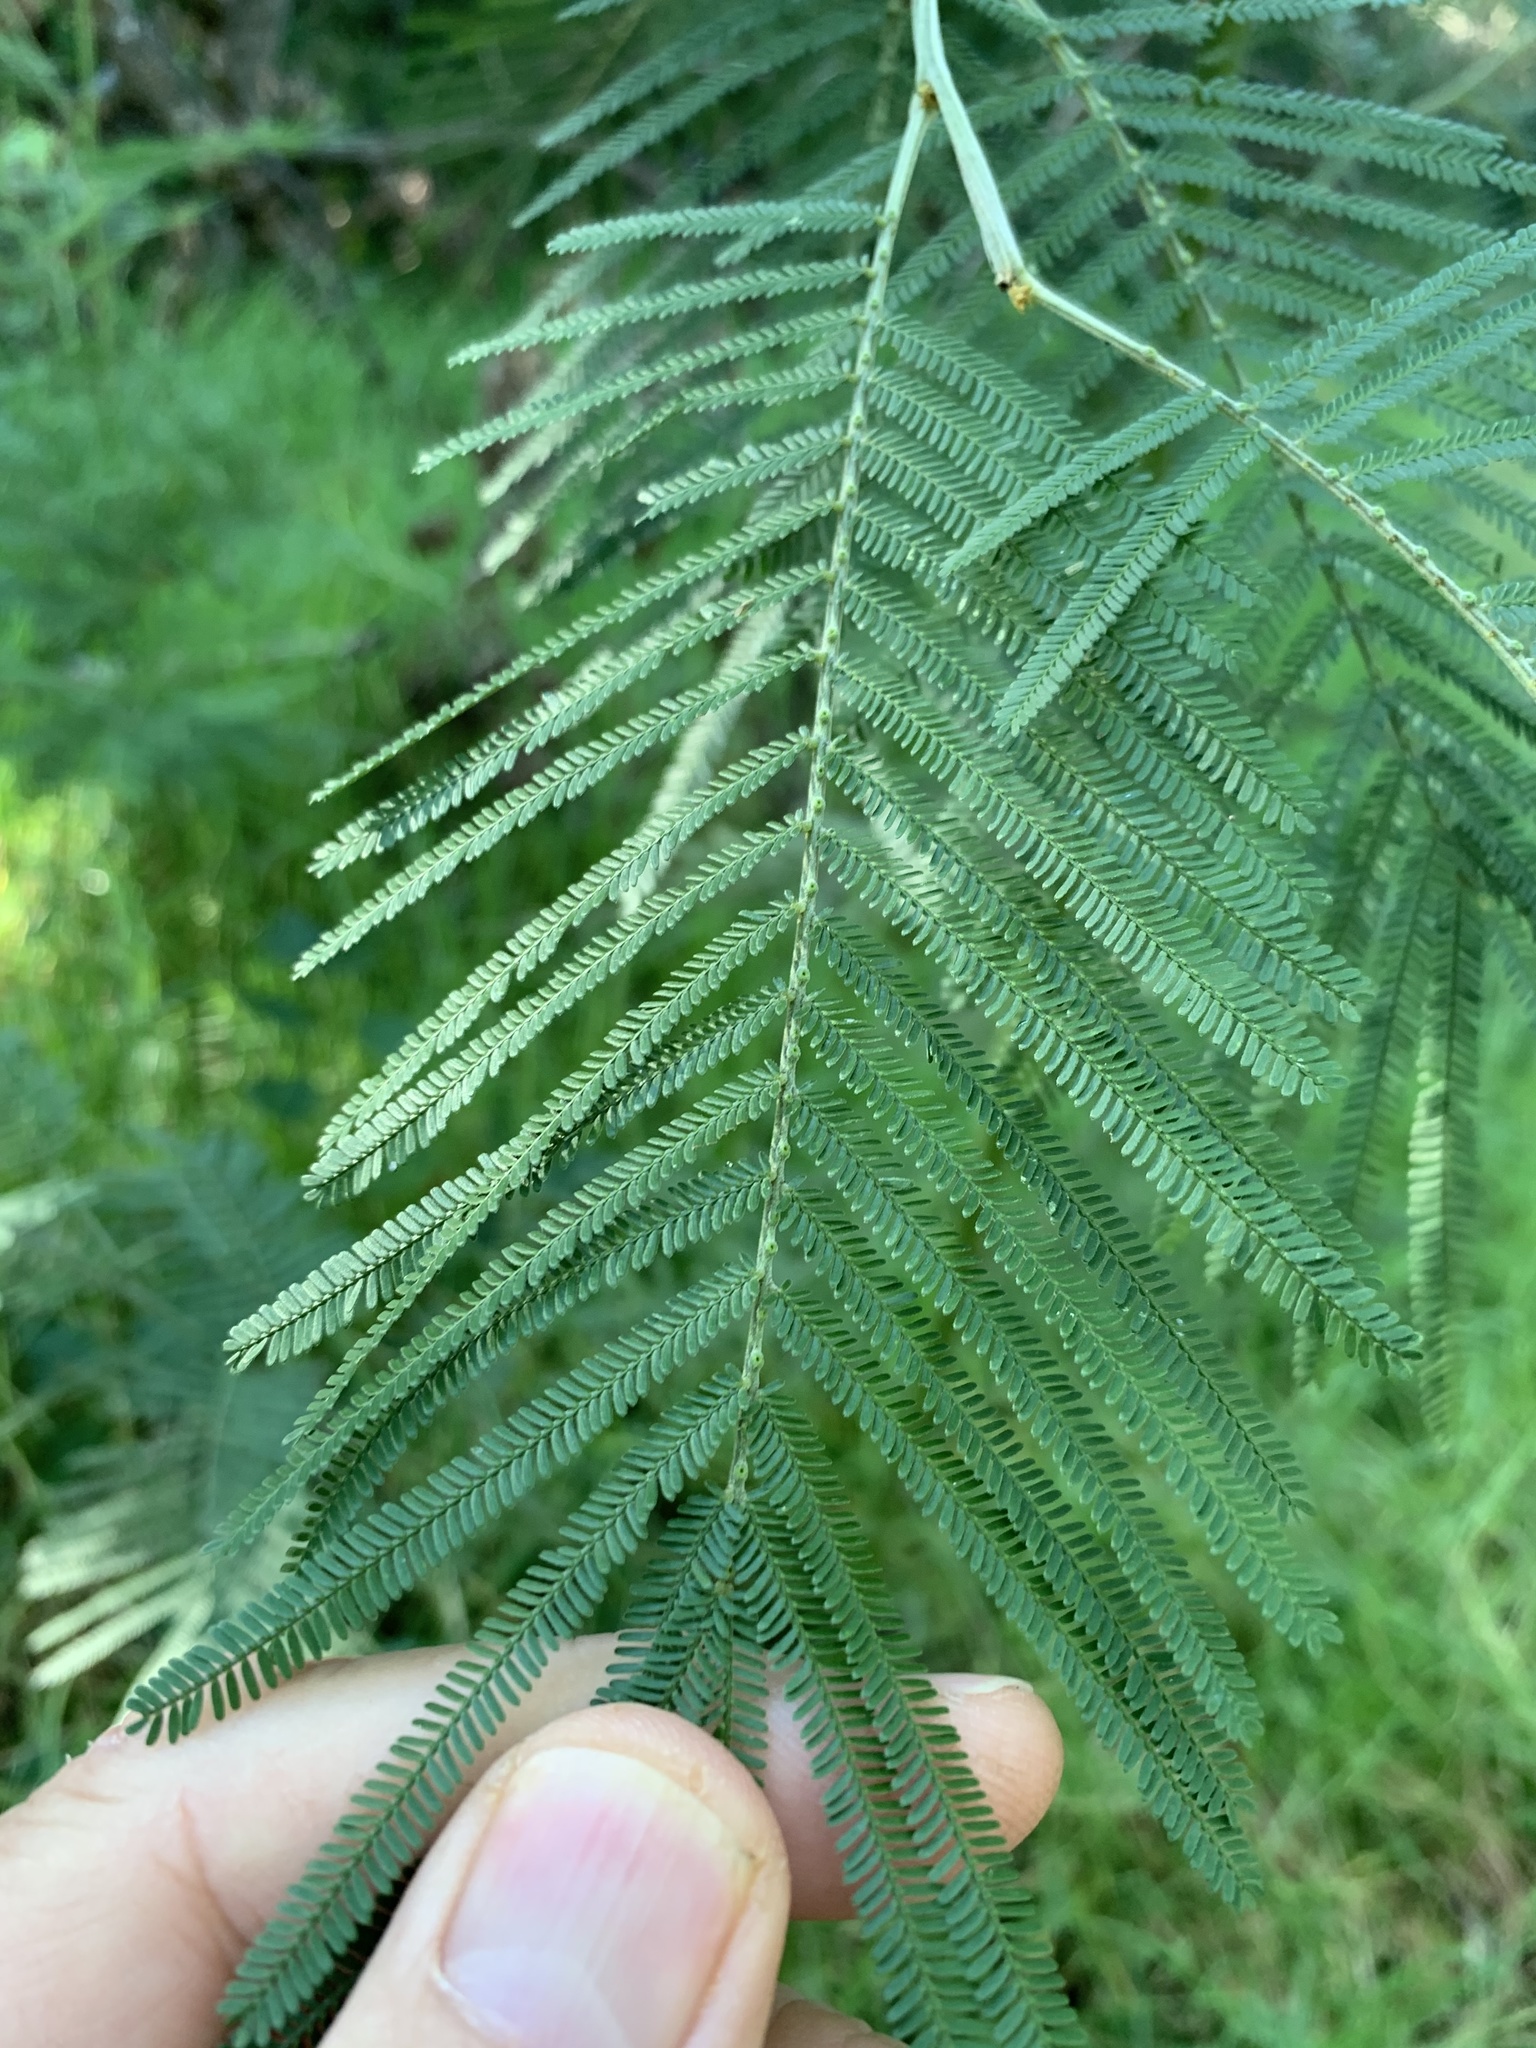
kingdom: Plantae
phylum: Tracheophyta
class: Magnoliopsida
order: Fabales
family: Fabaceae
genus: Acacia
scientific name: Acacia mearnsii
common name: Black wattle
